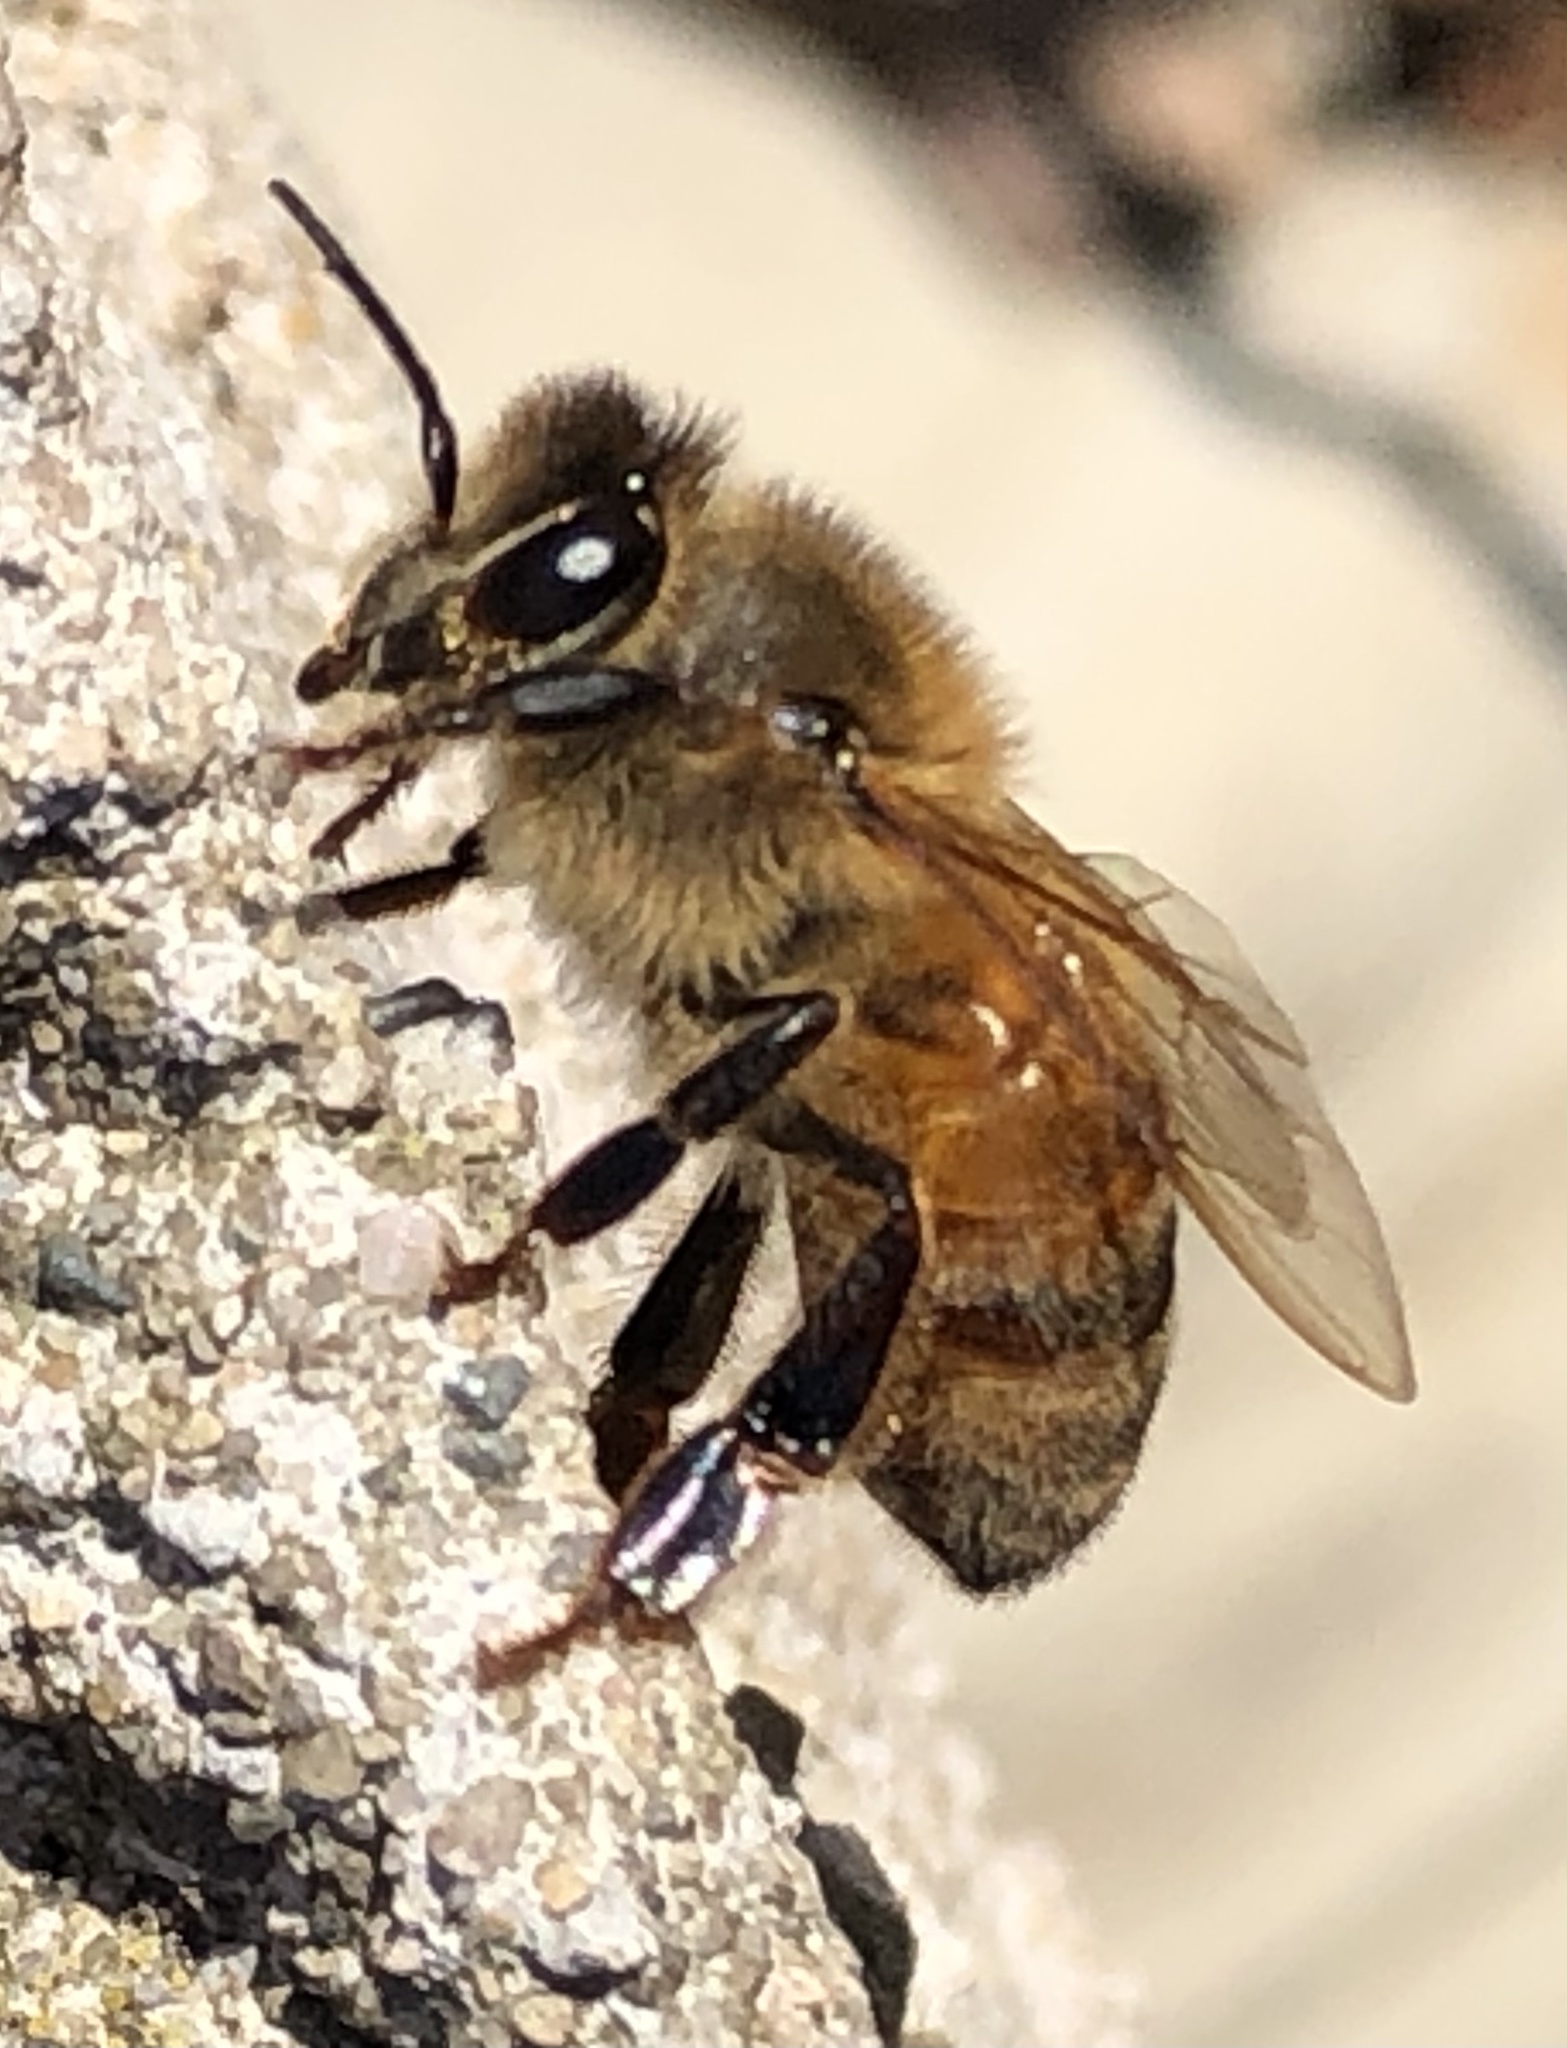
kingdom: Animalia
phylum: Arthropoda
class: Insecta
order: Hymenoptera
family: Apidae
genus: Apis
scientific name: Apis mellifera
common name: Honey bee
